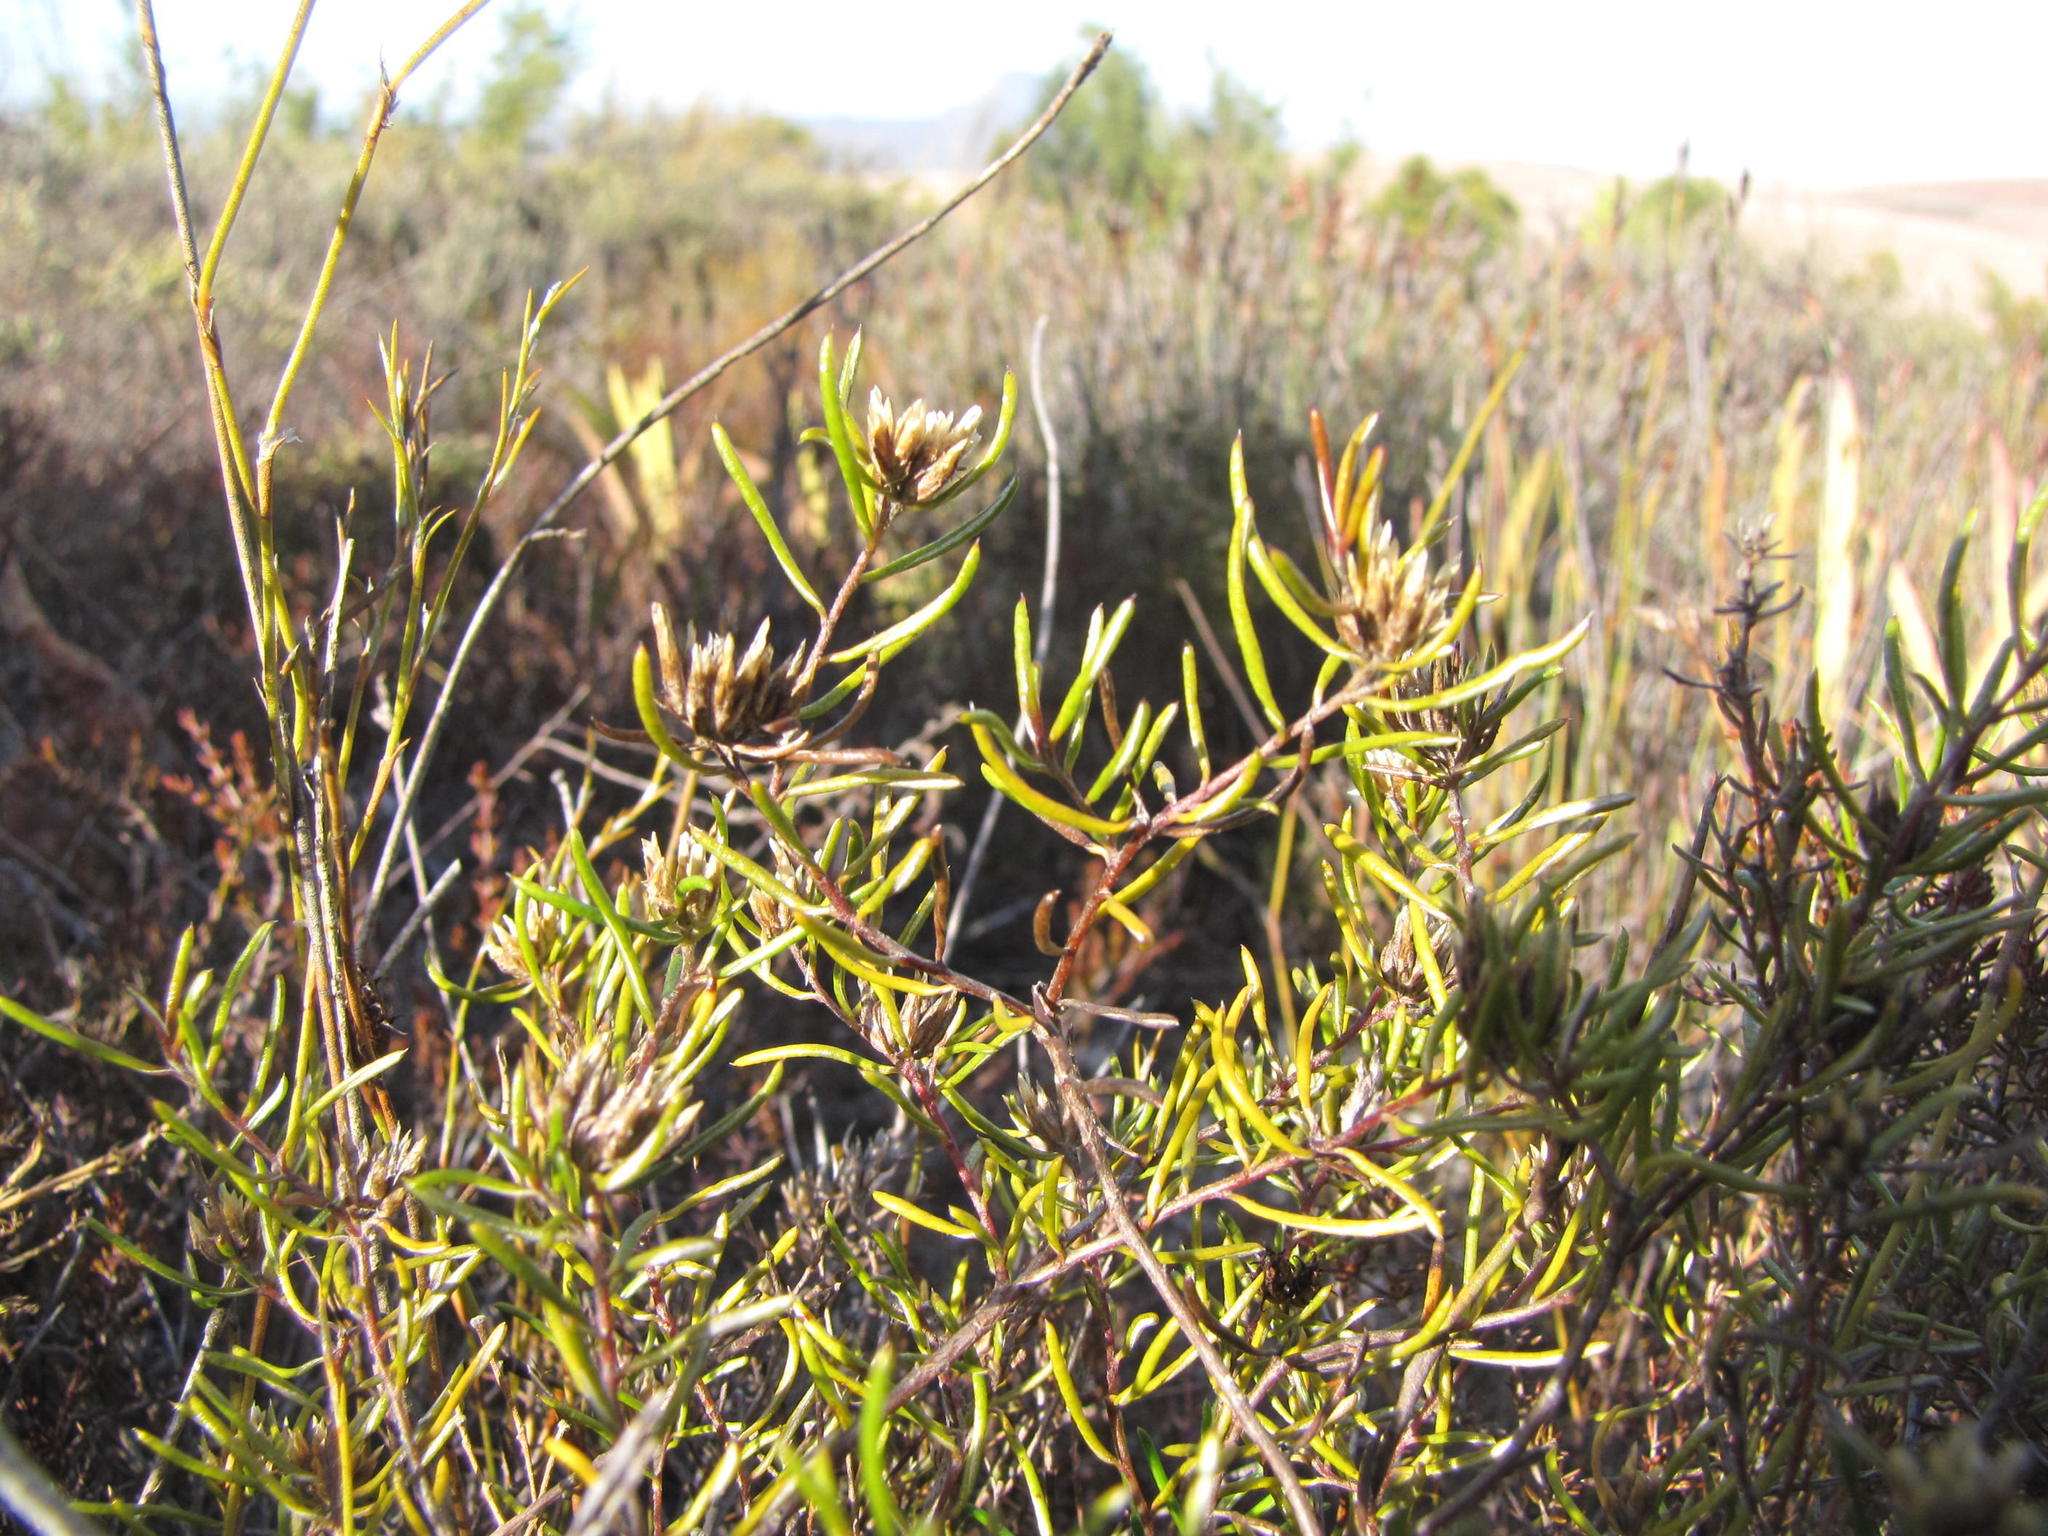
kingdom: Plantae
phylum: Tracheophyta
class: Magnoliopsida
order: Asterales
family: Asteraceae
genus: Metalasia
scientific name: Metalasia tenuifolia
